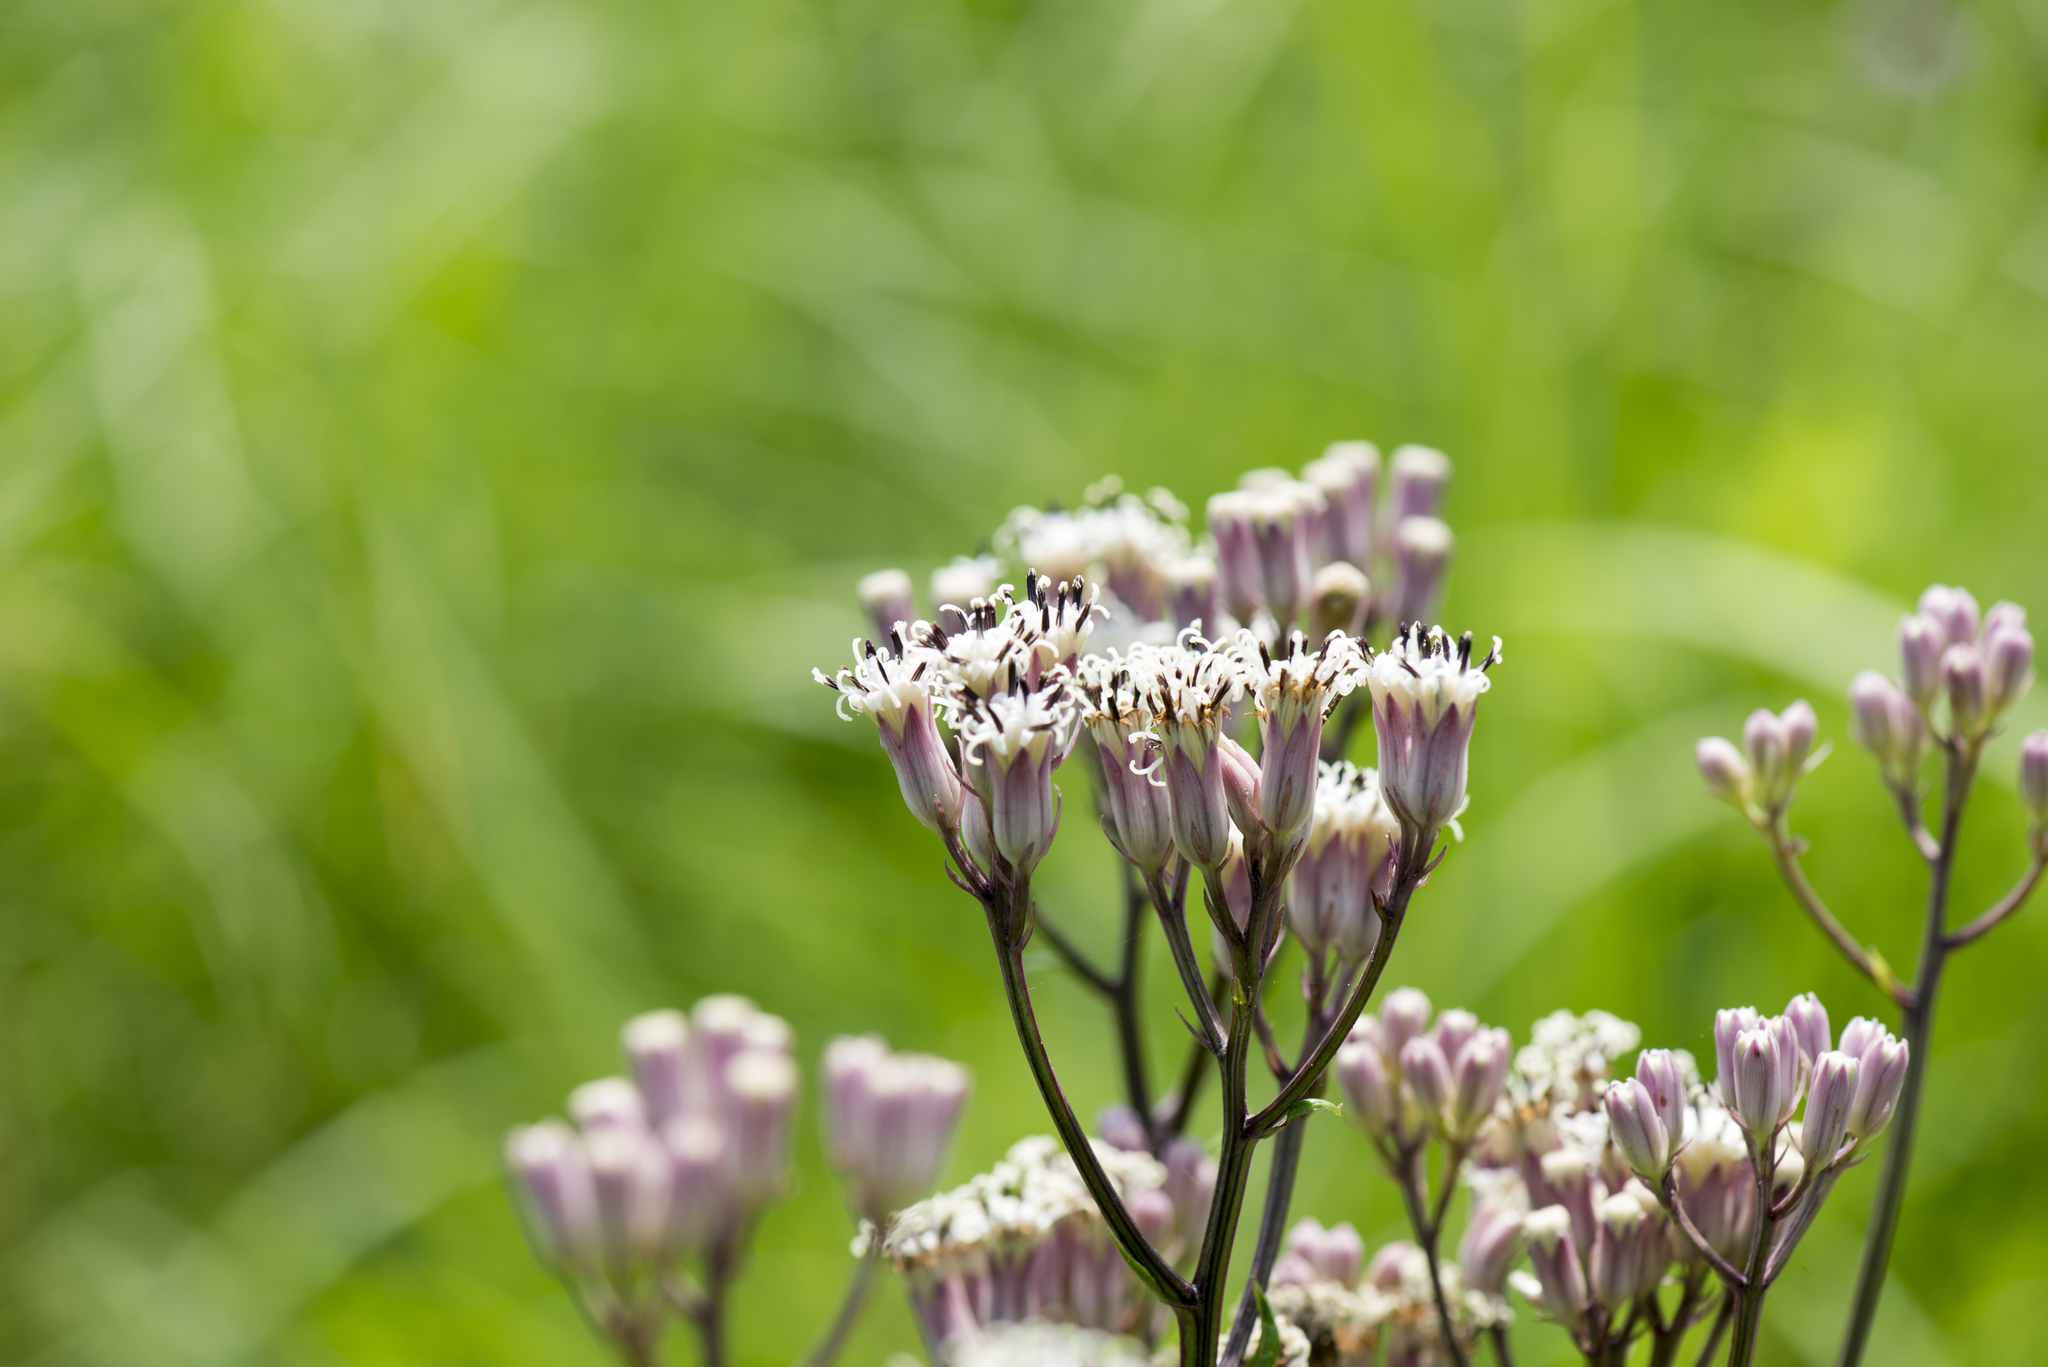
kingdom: Plantae
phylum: Tracheophyta
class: Magnoliopsida
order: Asterales
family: Asteraceae
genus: Syneilesis
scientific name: Syneilesis hayatae
